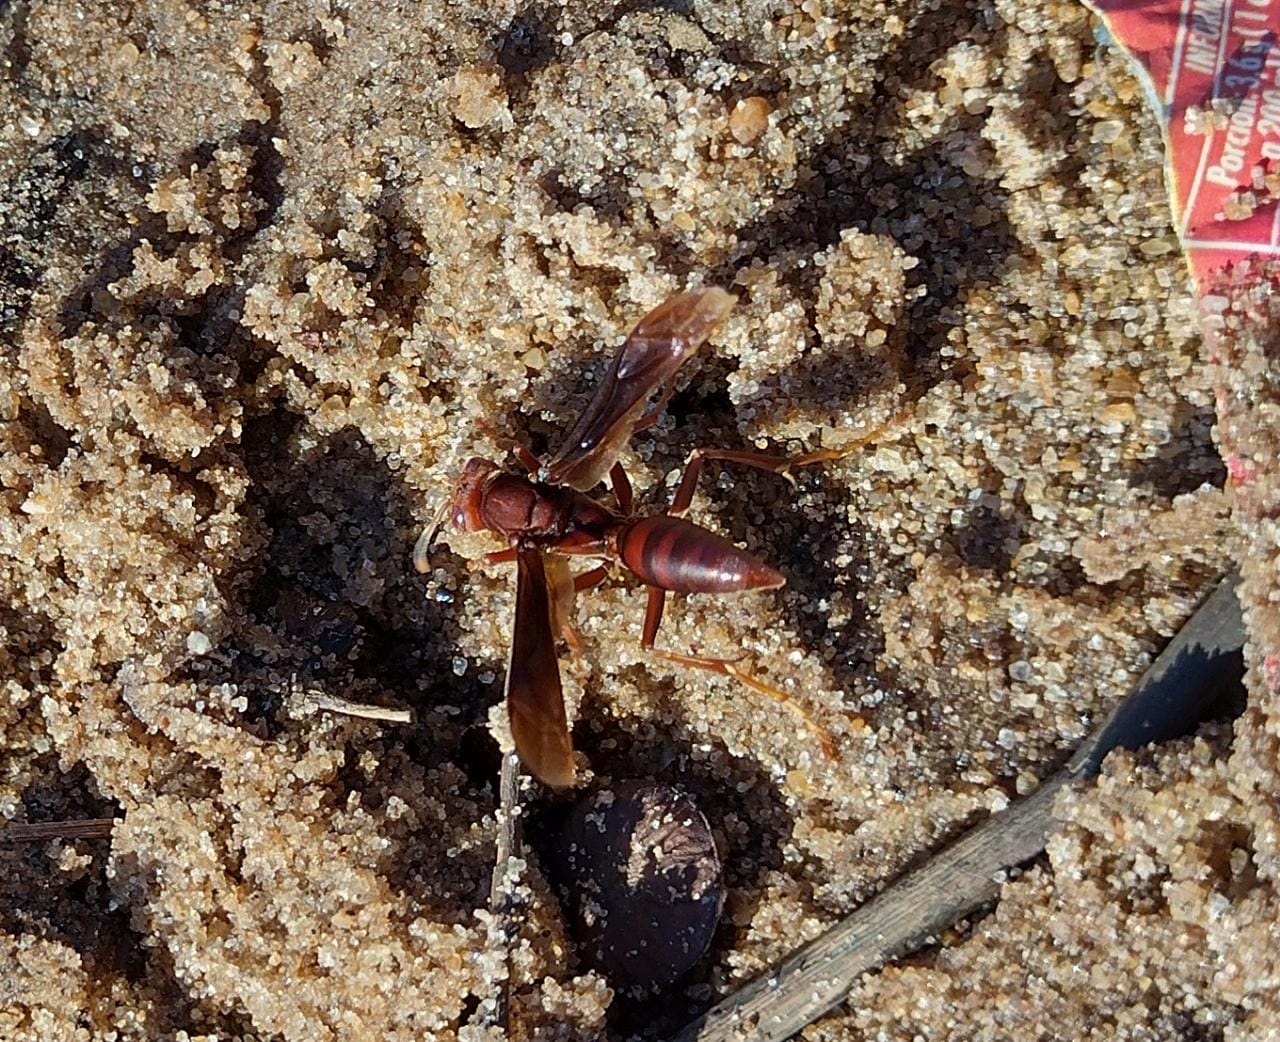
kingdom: Animalia
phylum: Arthropoda
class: Insecta
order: Hymenoptera
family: Pompilidae
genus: Aphanilopterus
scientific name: Aphanilopterus
